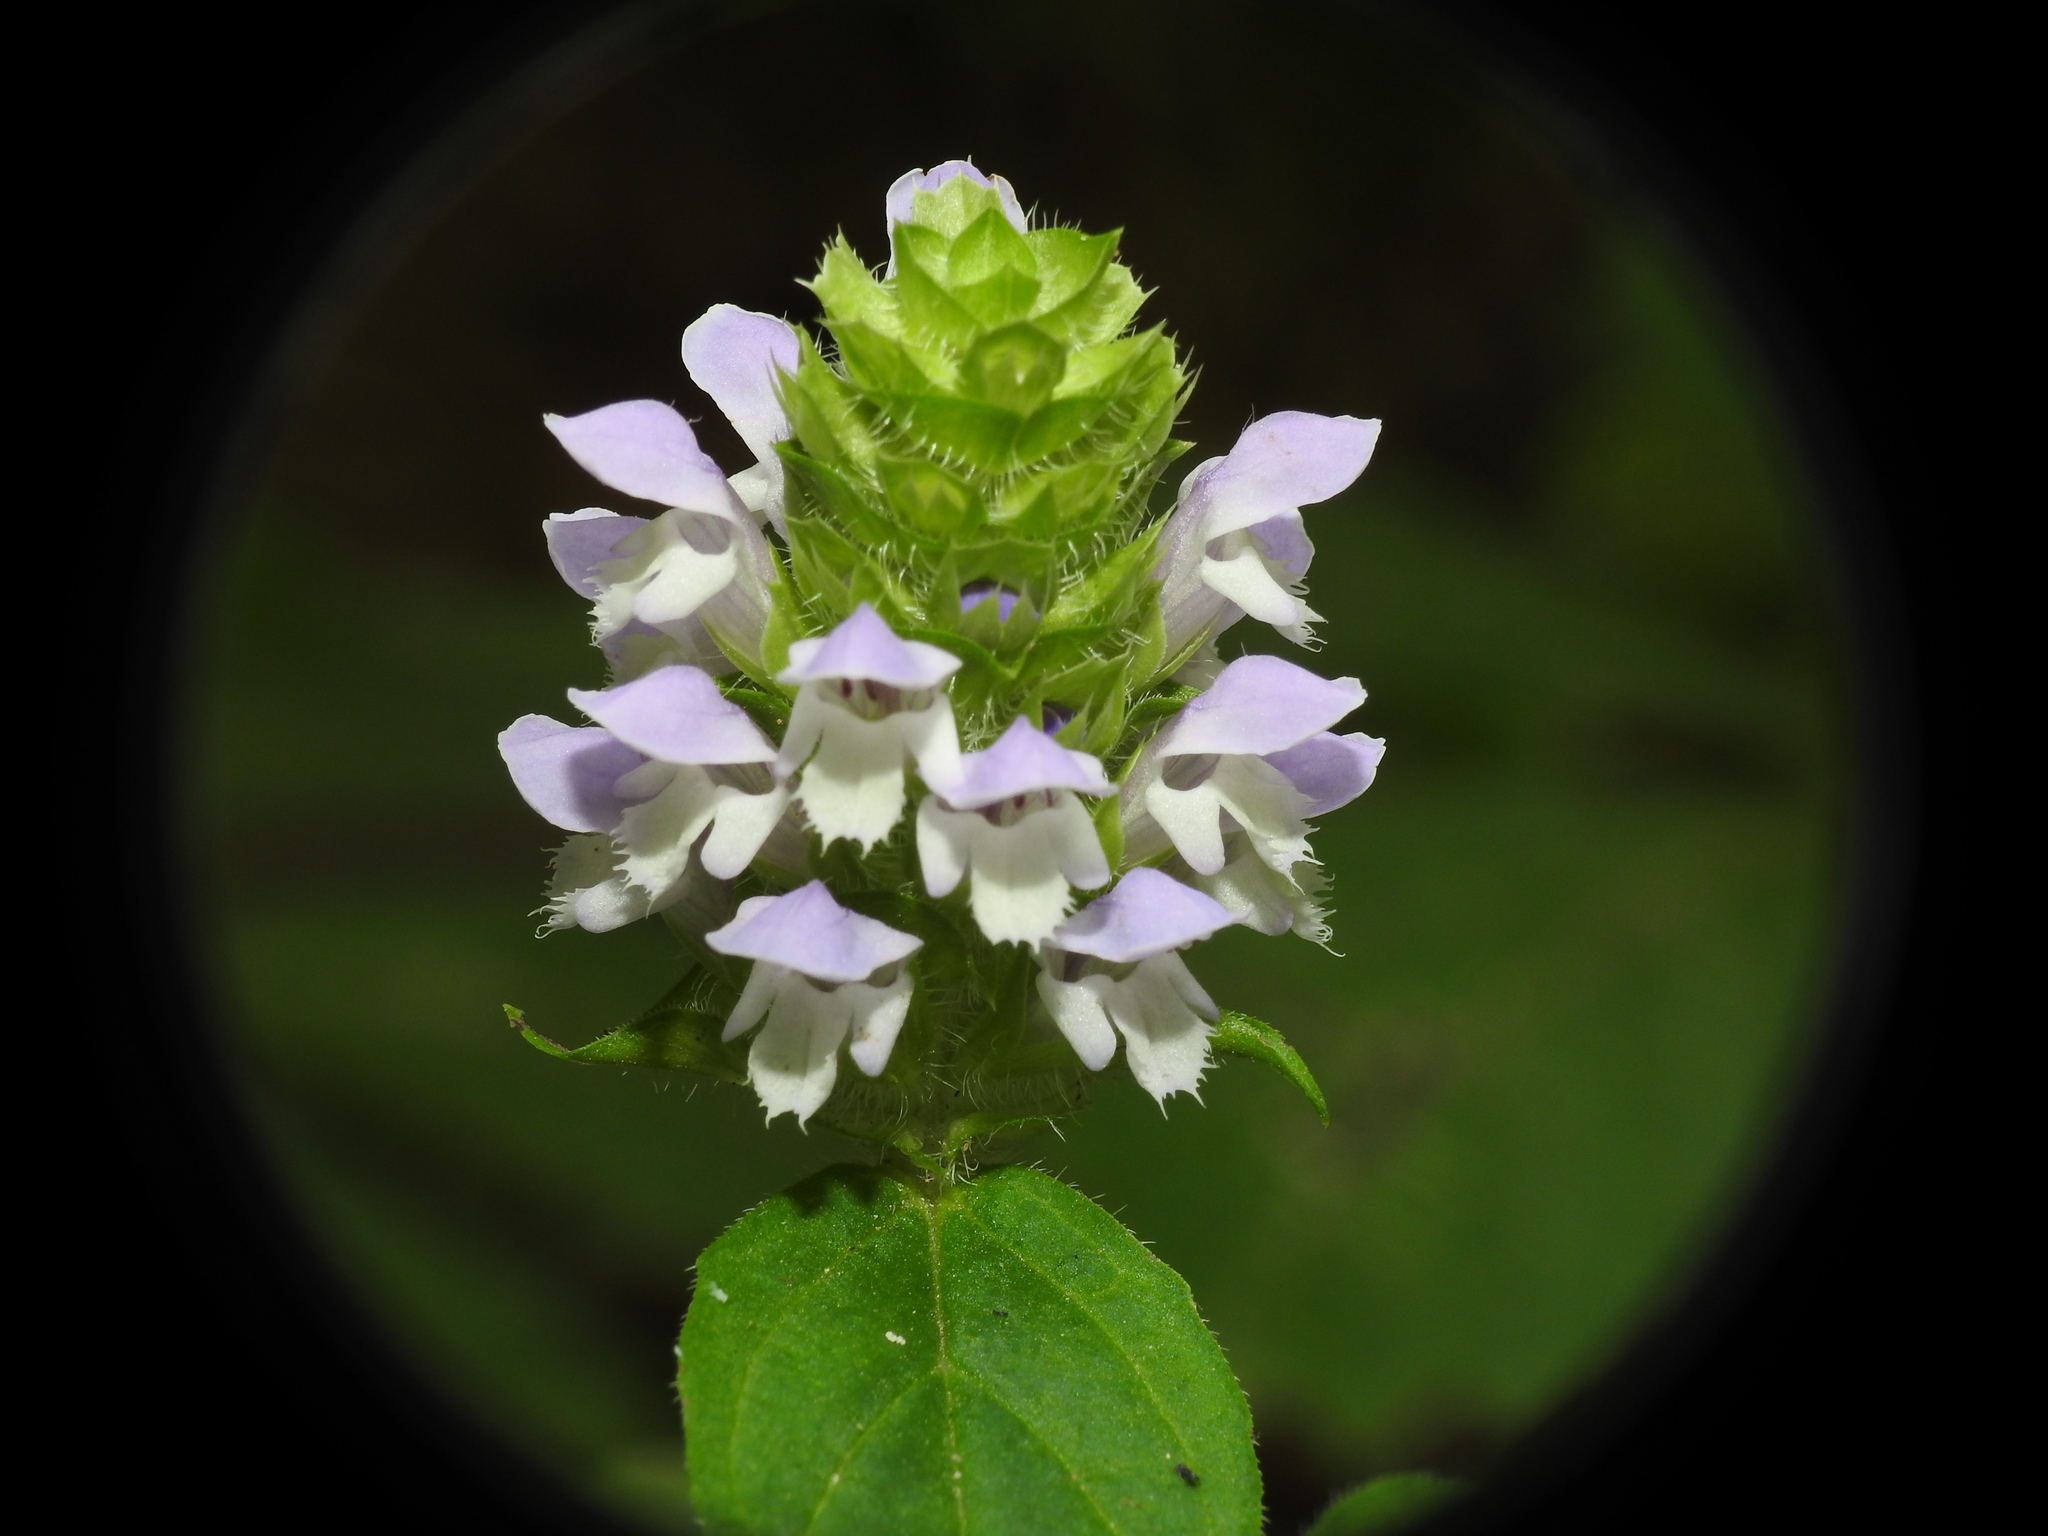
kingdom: Plantae
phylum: Tracheophyta
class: Magnoliopsida
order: Lamiales
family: Lamiaceae
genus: Prunella
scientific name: Prunella vulgaris
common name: Heal-all
